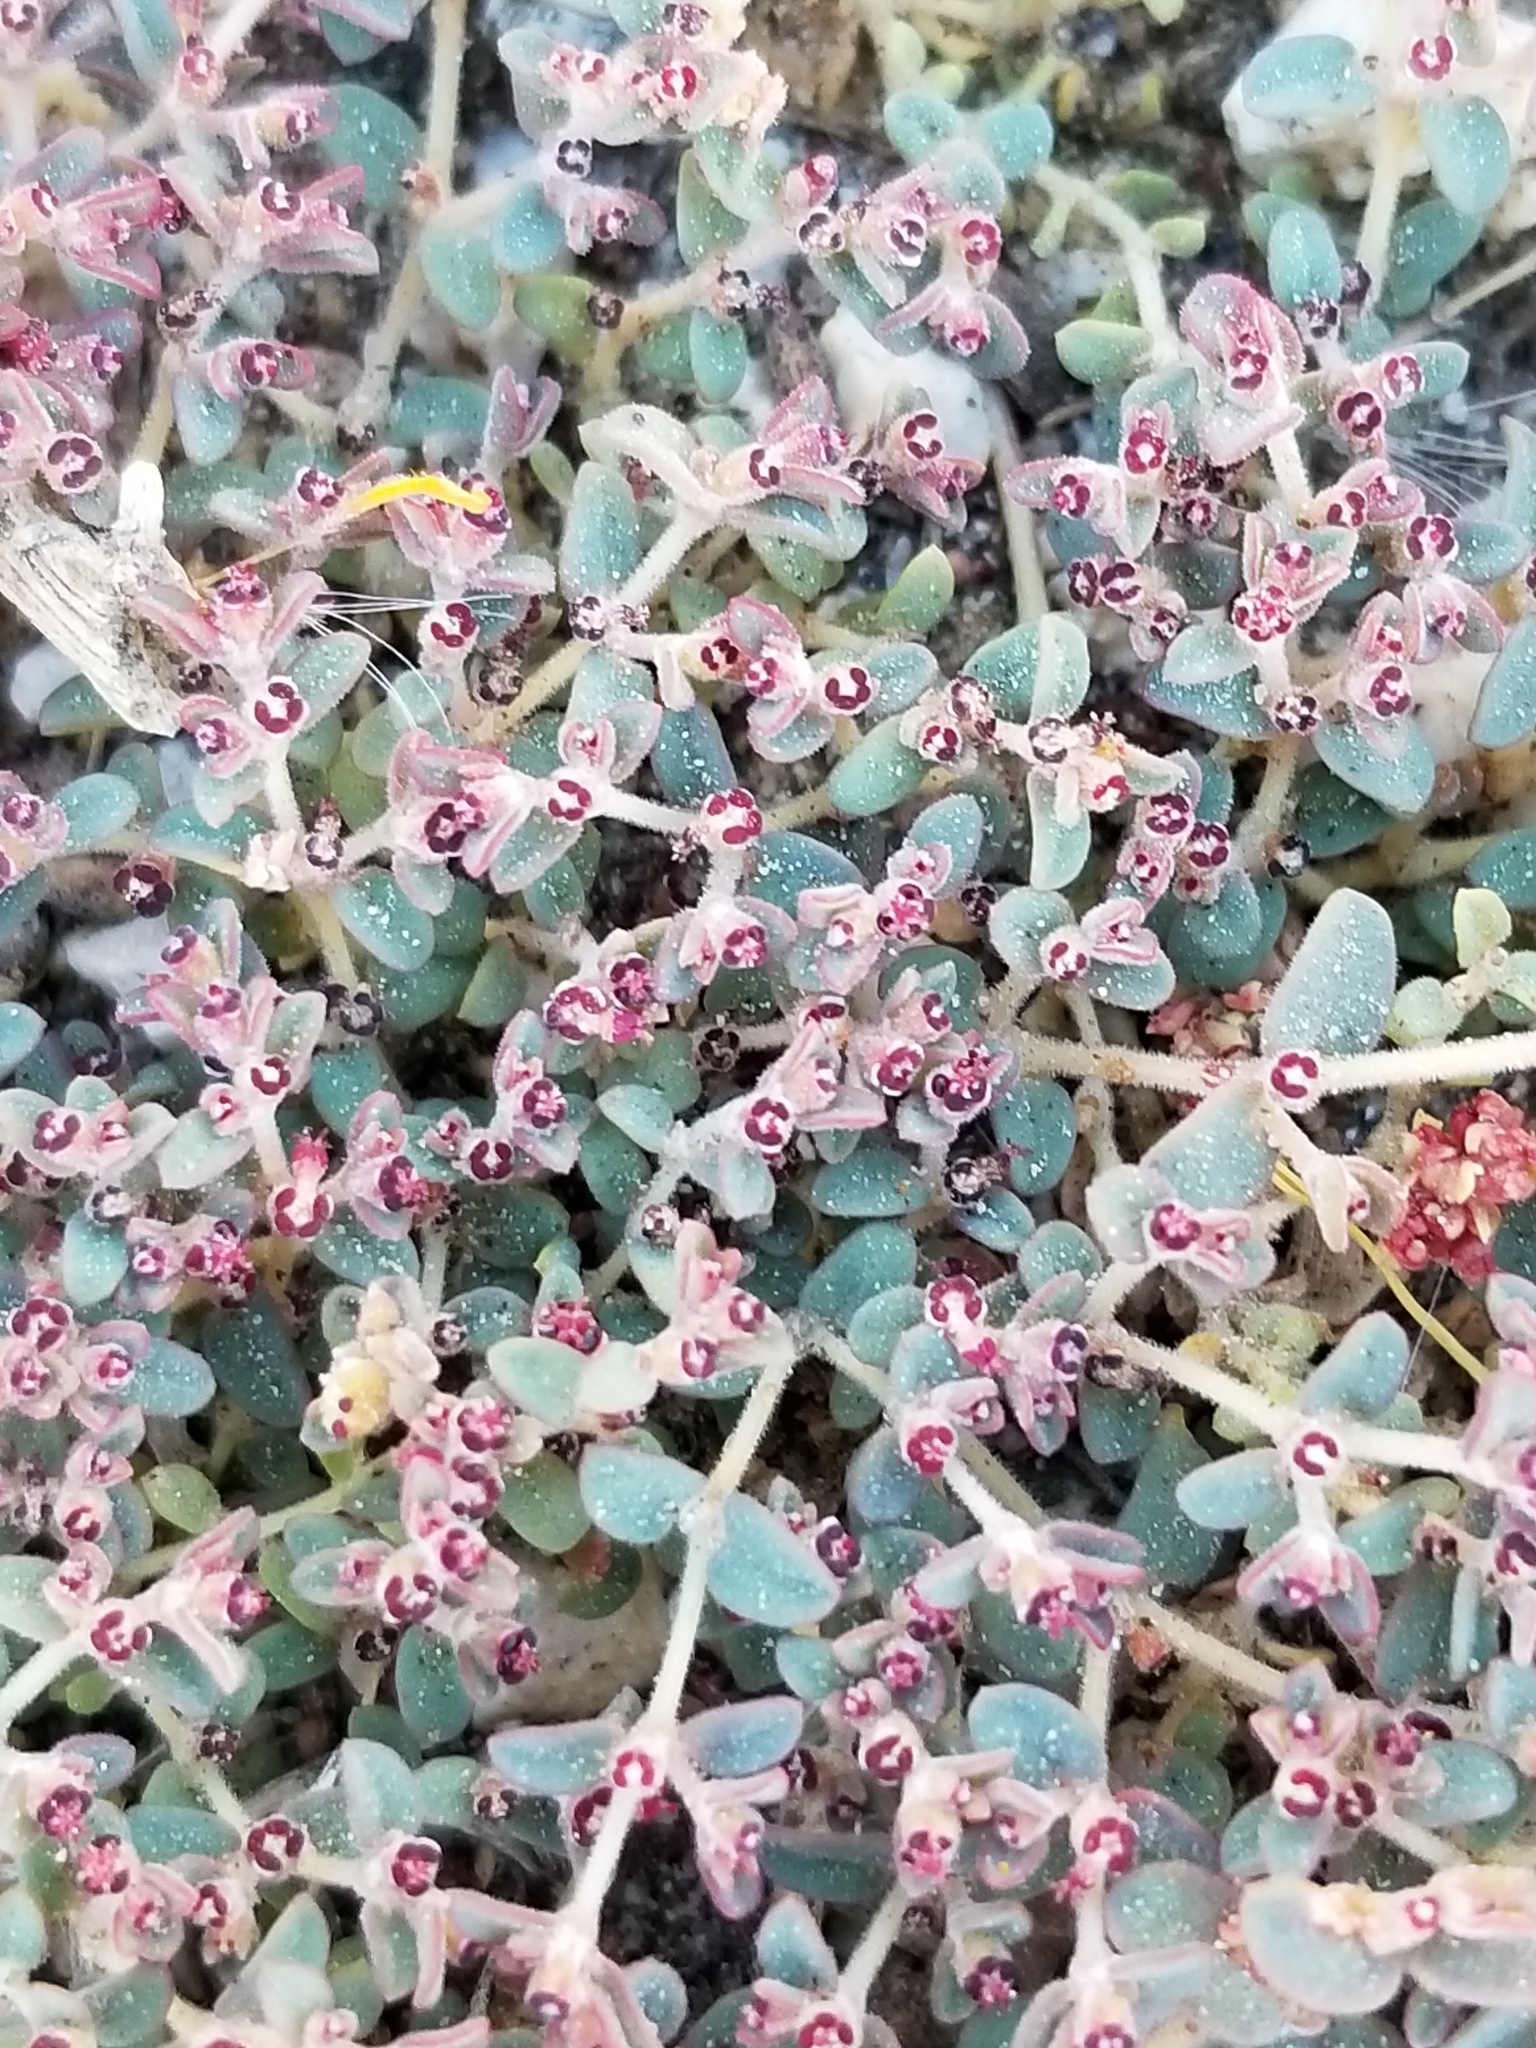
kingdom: Plantae
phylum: Tracheophyta
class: Magnoliopsida
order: Malpighiales
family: Euphorbiaceae
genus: Euphorbia
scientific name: Euphorbia polycarpa
